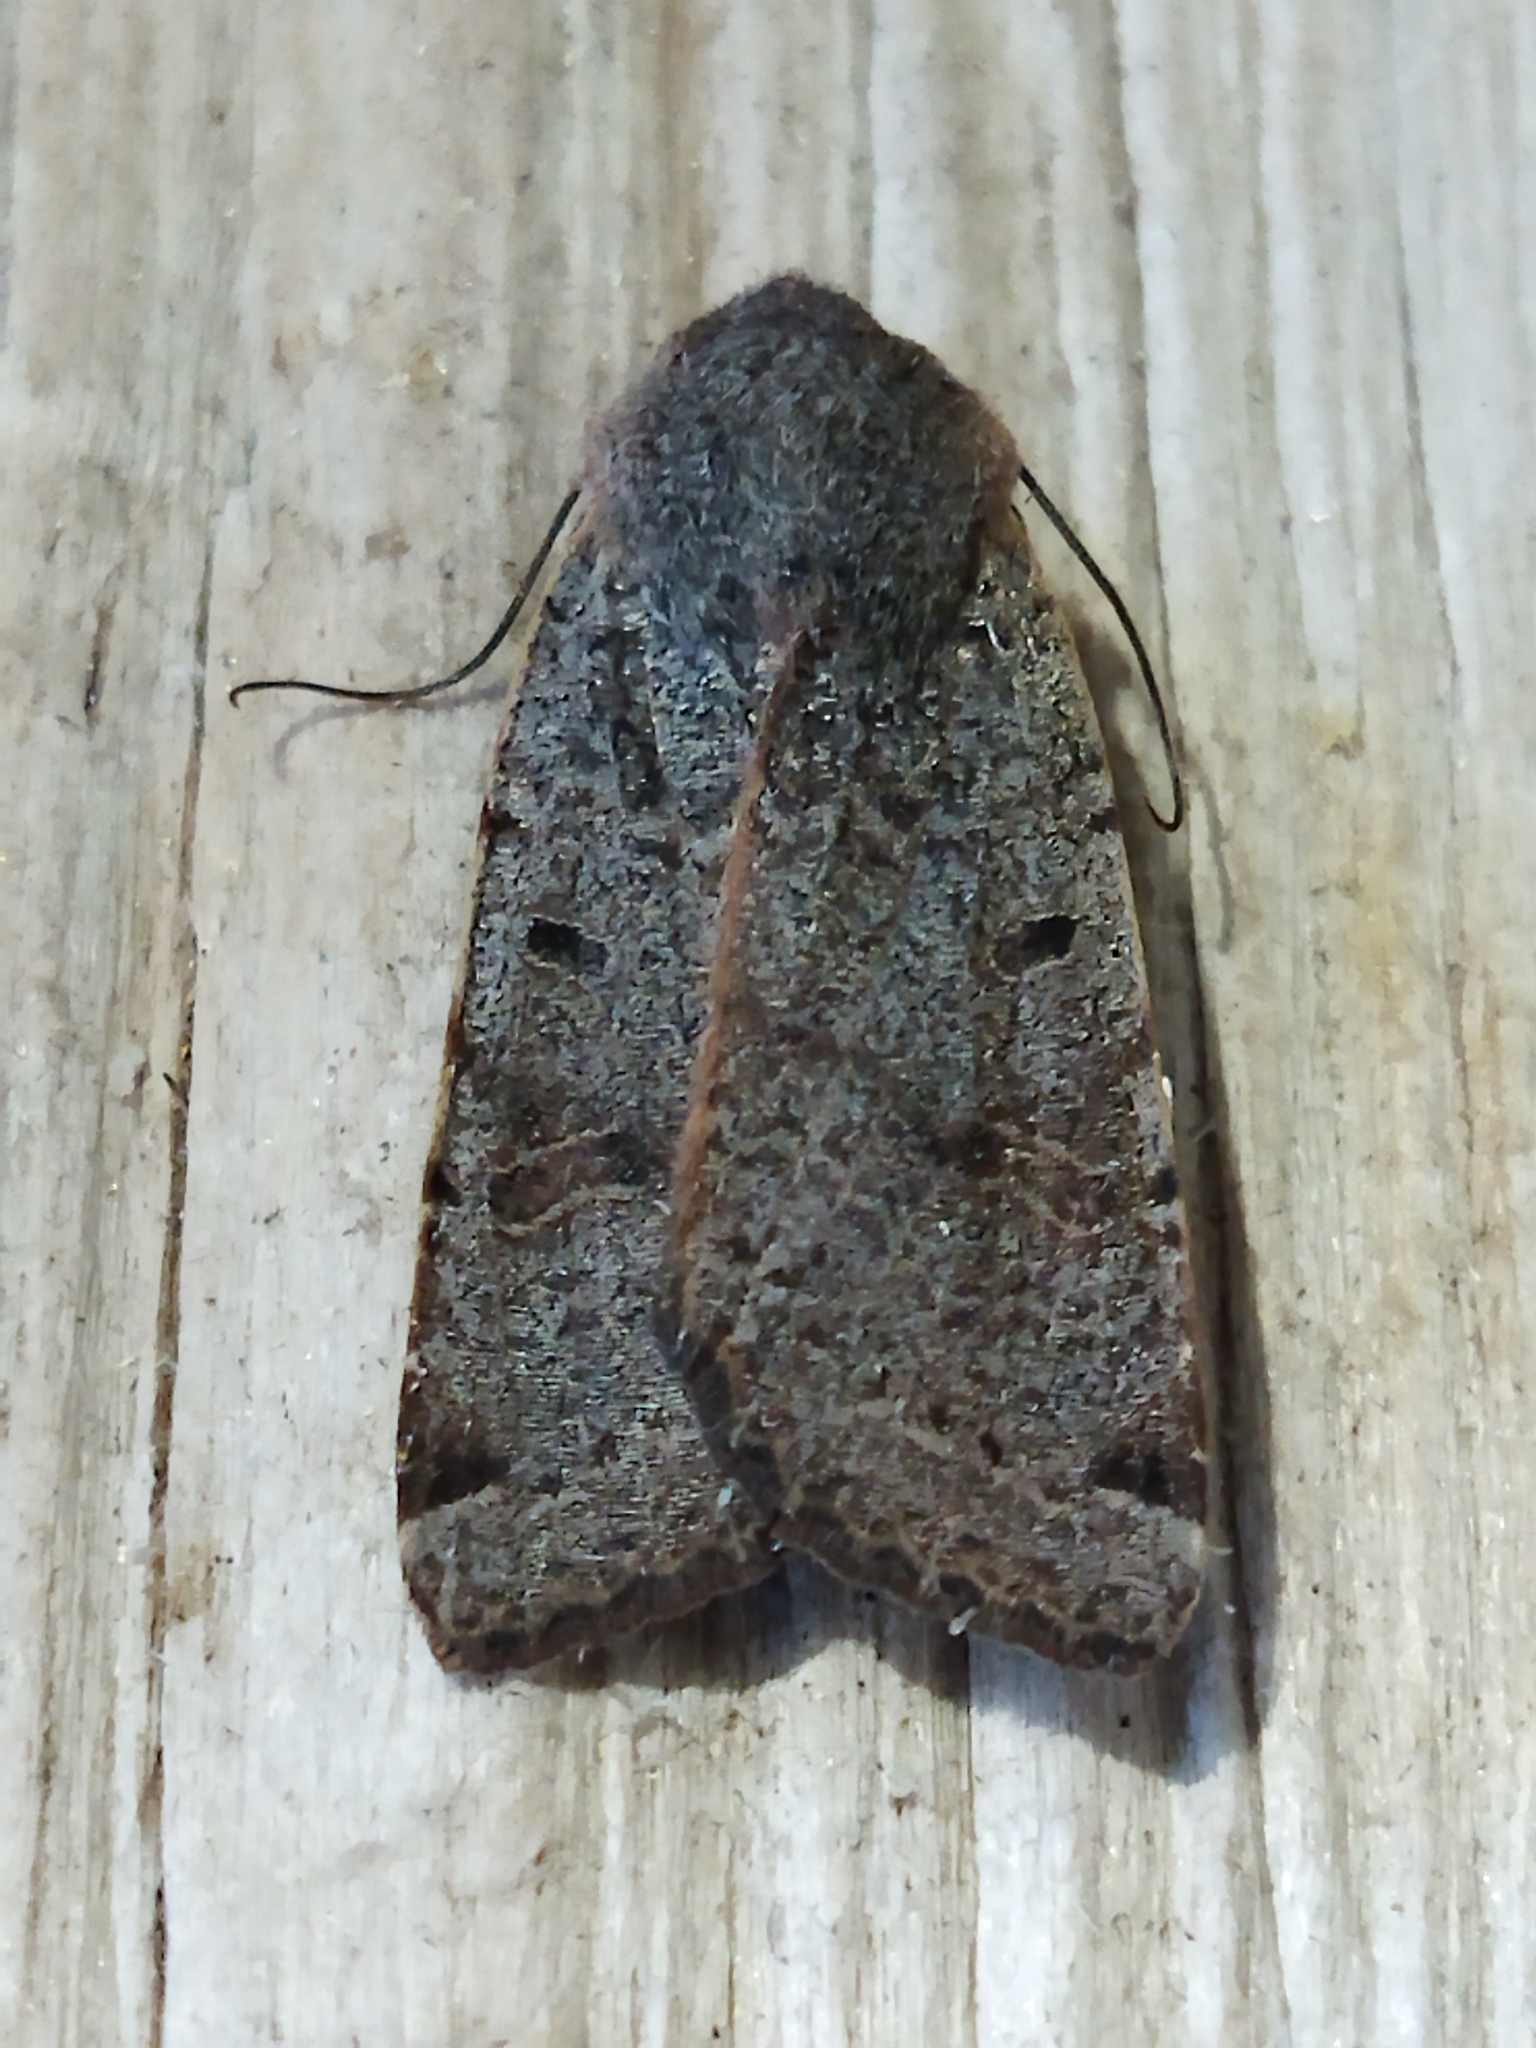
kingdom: Animalia
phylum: Arthropoda
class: Insecta
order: Lepidoptera
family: Noctuidae
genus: Agrochola
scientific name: Agrochola lychnidis
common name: Beaded chestnut
